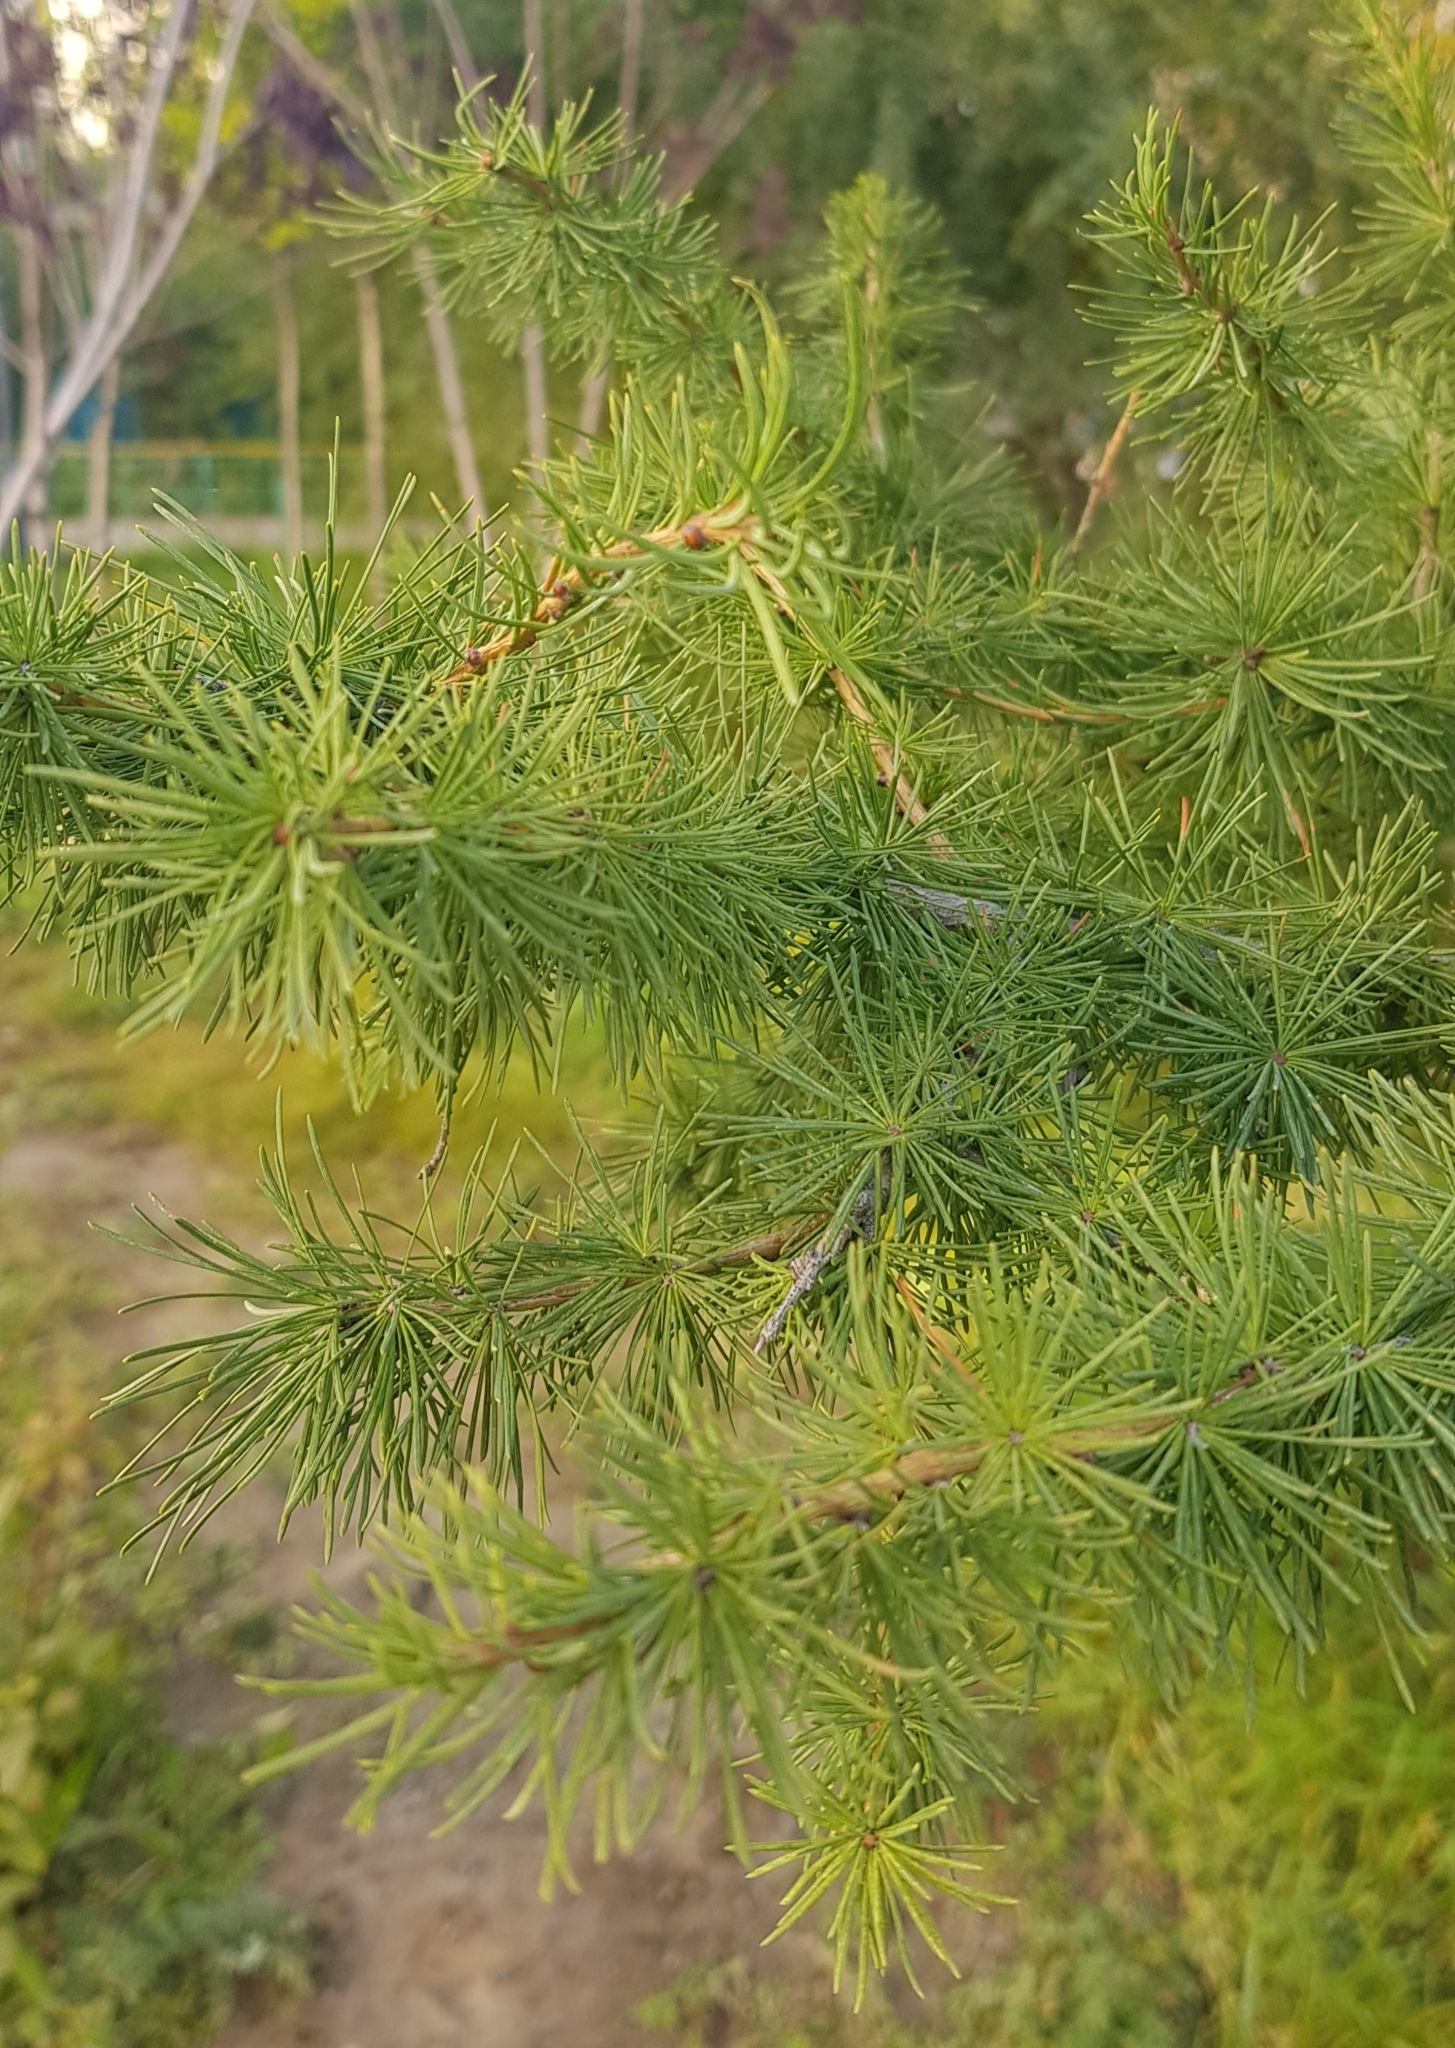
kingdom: Plantae
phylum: Tracheophyta
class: Pinopsida
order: Pinales
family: Pinaceae
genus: Larix
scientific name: Larix sibirica
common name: Siberian larch
